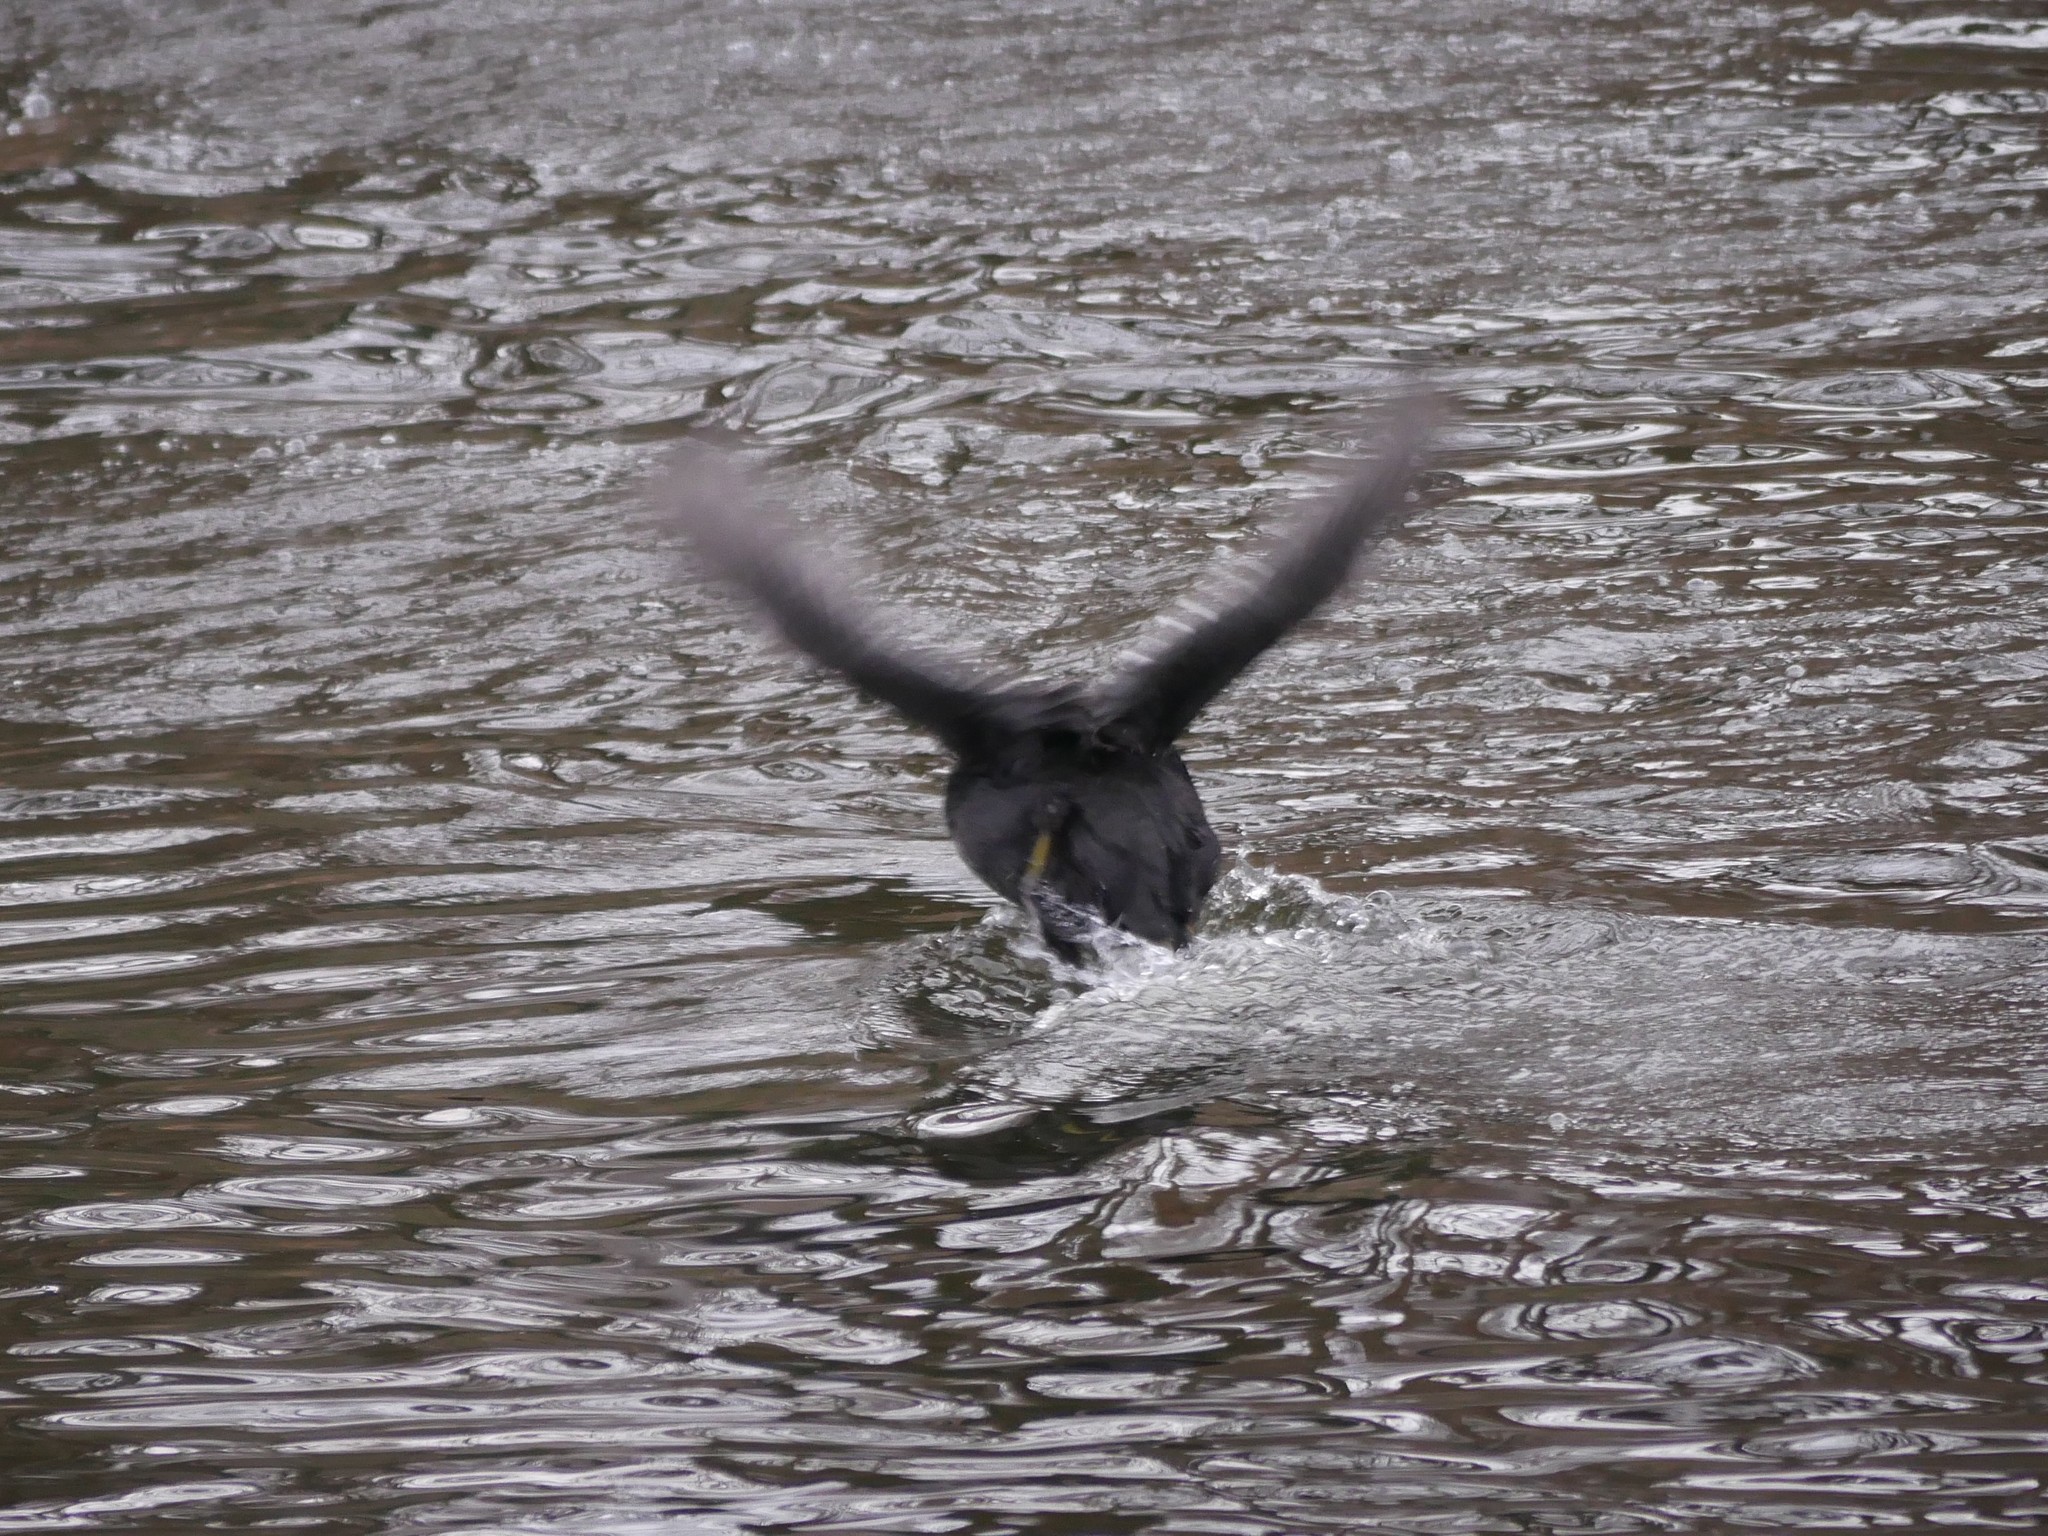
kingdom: Animalia
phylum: Chordata
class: Aves
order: Gruiformes
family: Rallidae
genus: Fulica
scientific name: Fulica atra
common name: Eurasian coot
